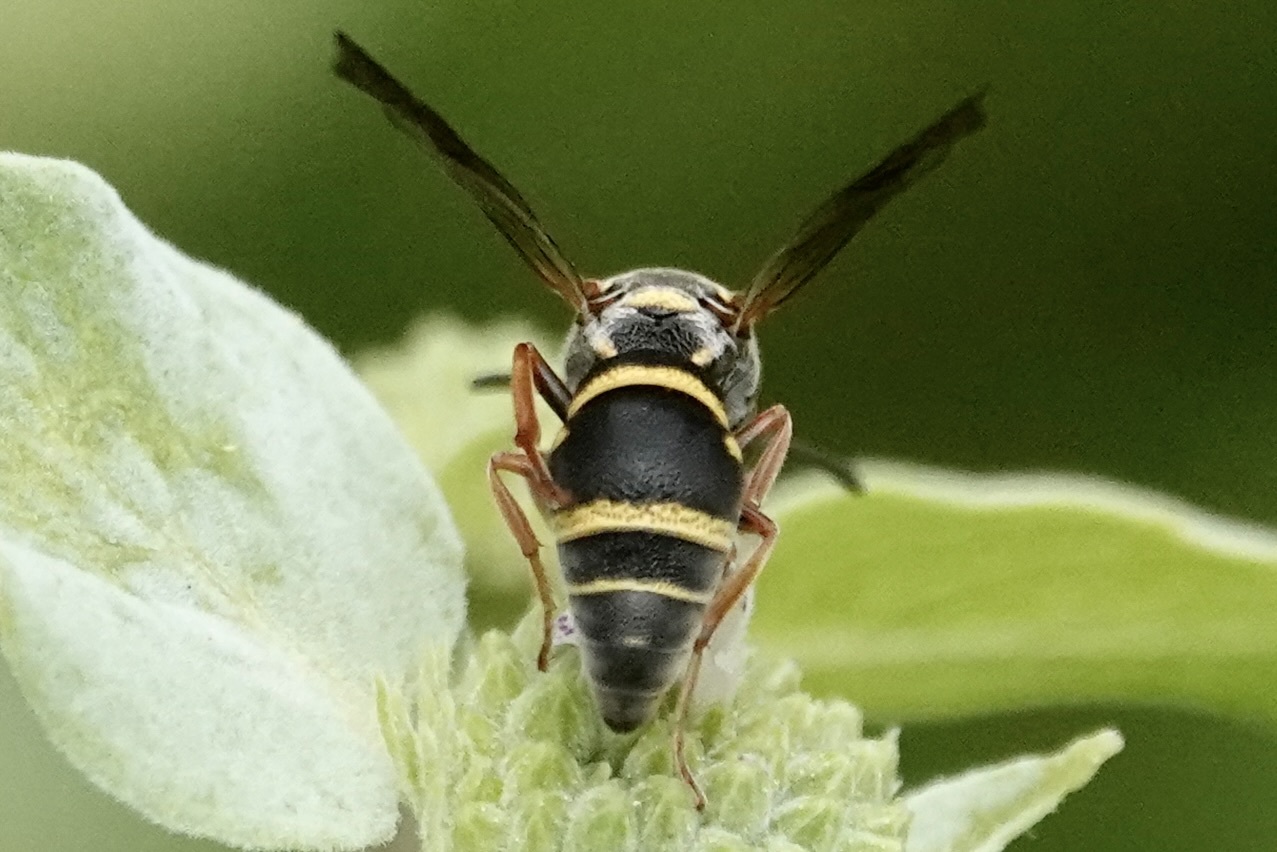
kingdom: Animalia
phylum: Arthropoda
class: Insecta
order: Hymenoptera
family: Eumenidae
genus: Rhynchalastor
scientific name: Rhynchalastor fundatiformis
